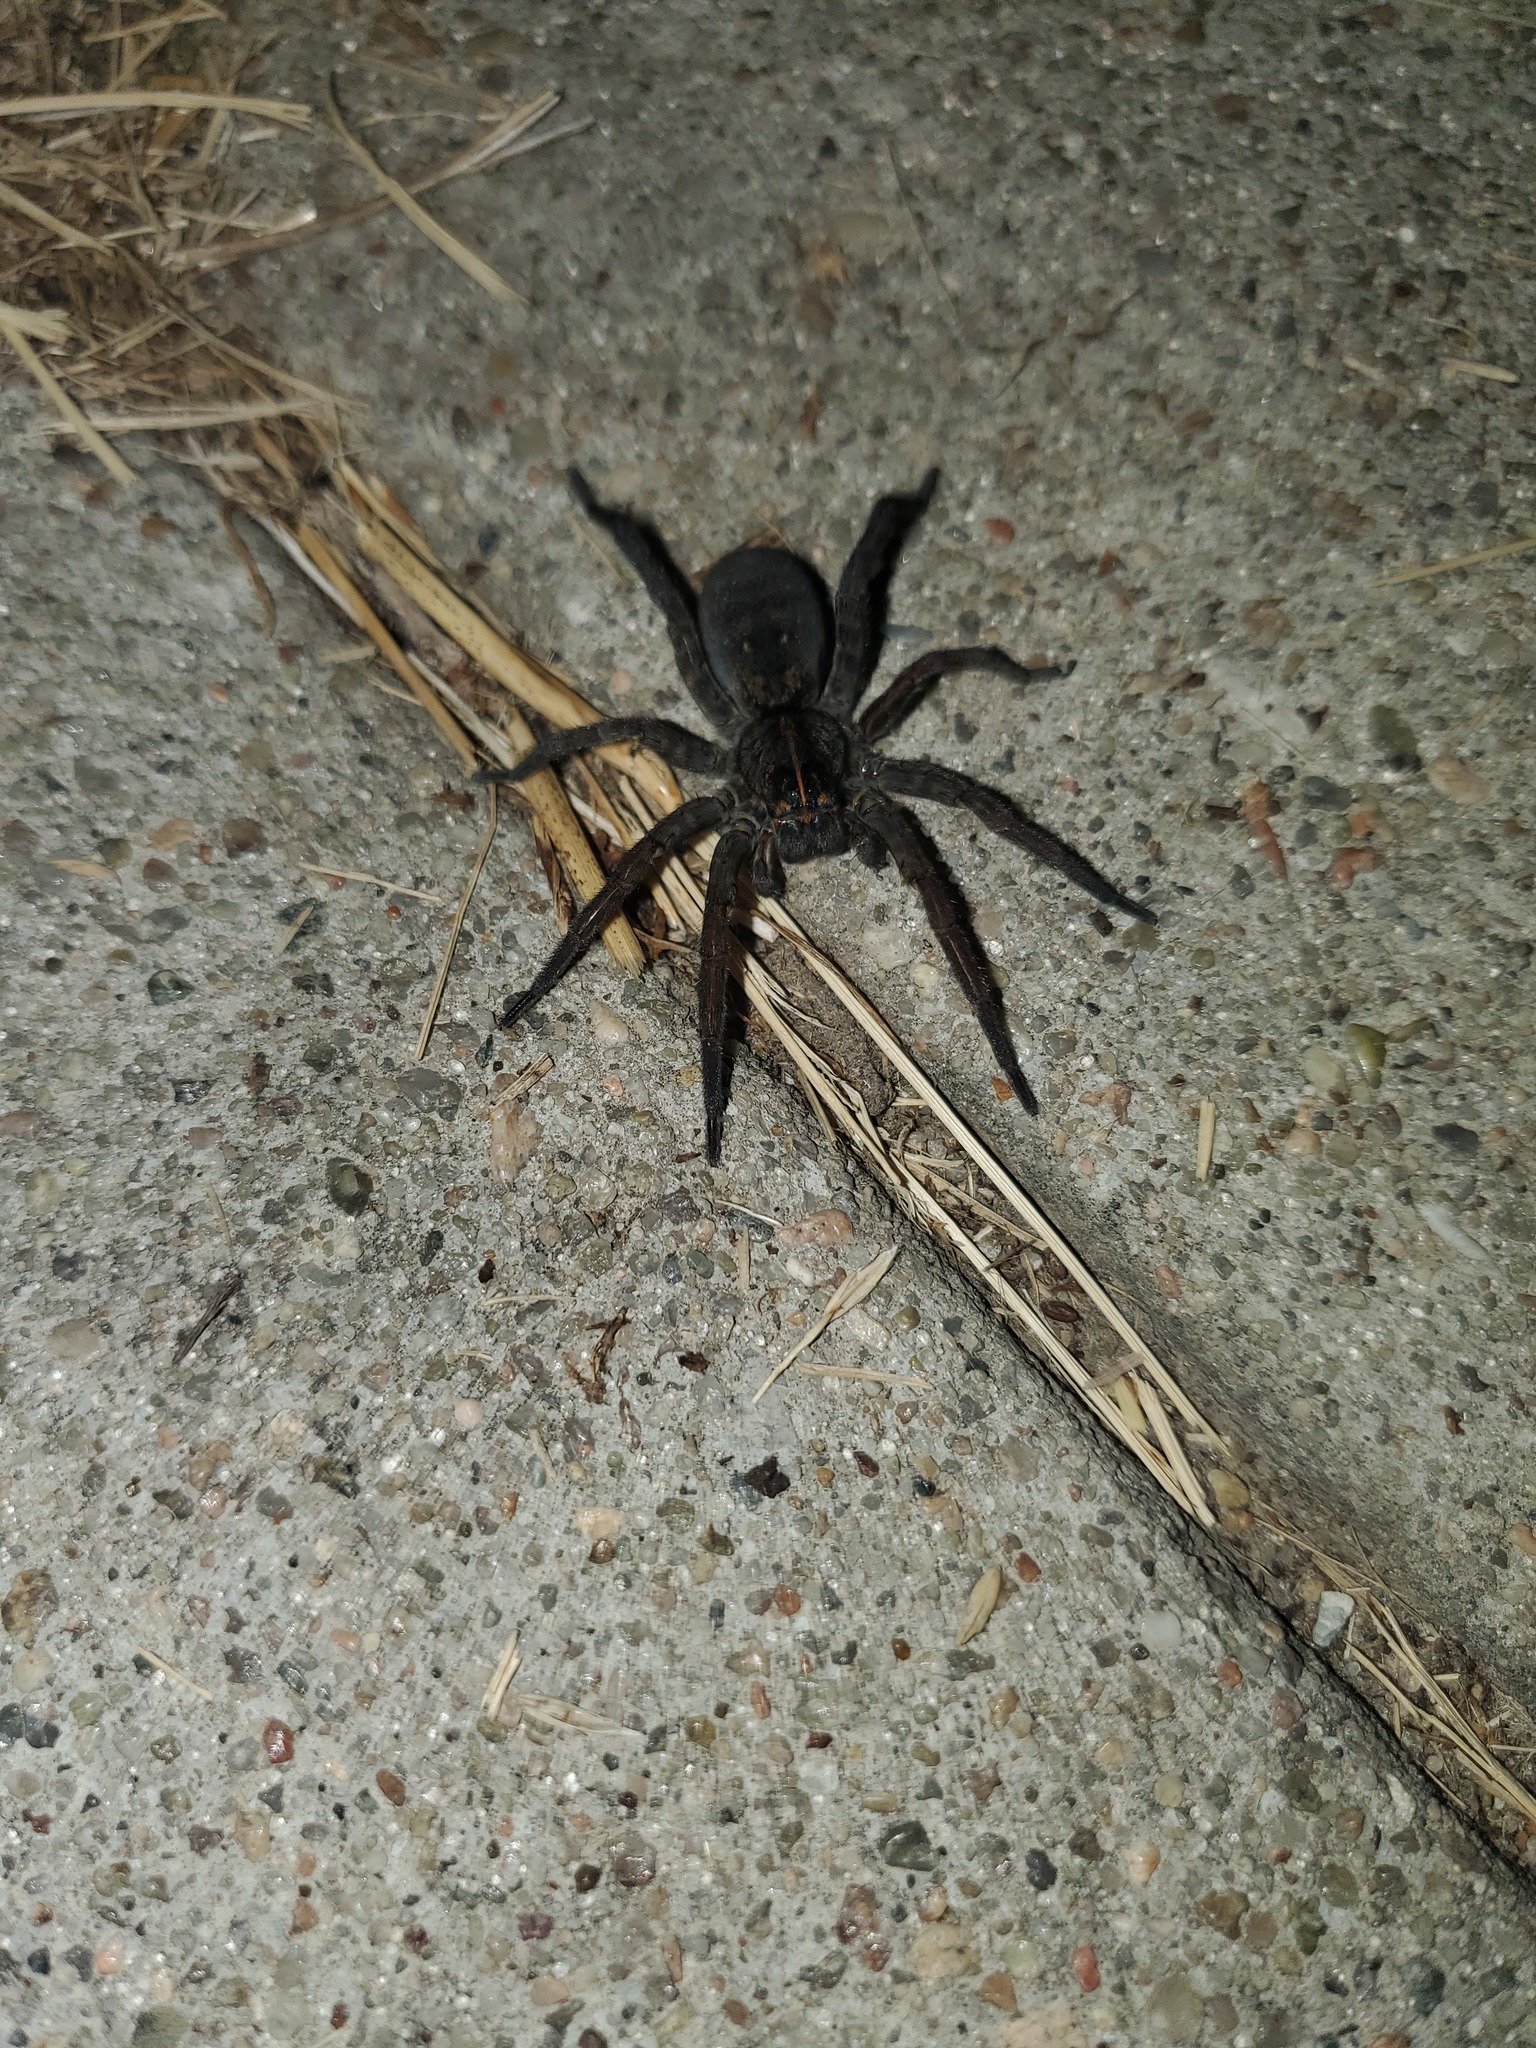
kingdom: Animalia
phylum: Arthropoda
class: Arachnida
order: Araneae
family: Lycosidae
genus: Tigrosa
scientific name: Tigrosa grandis
